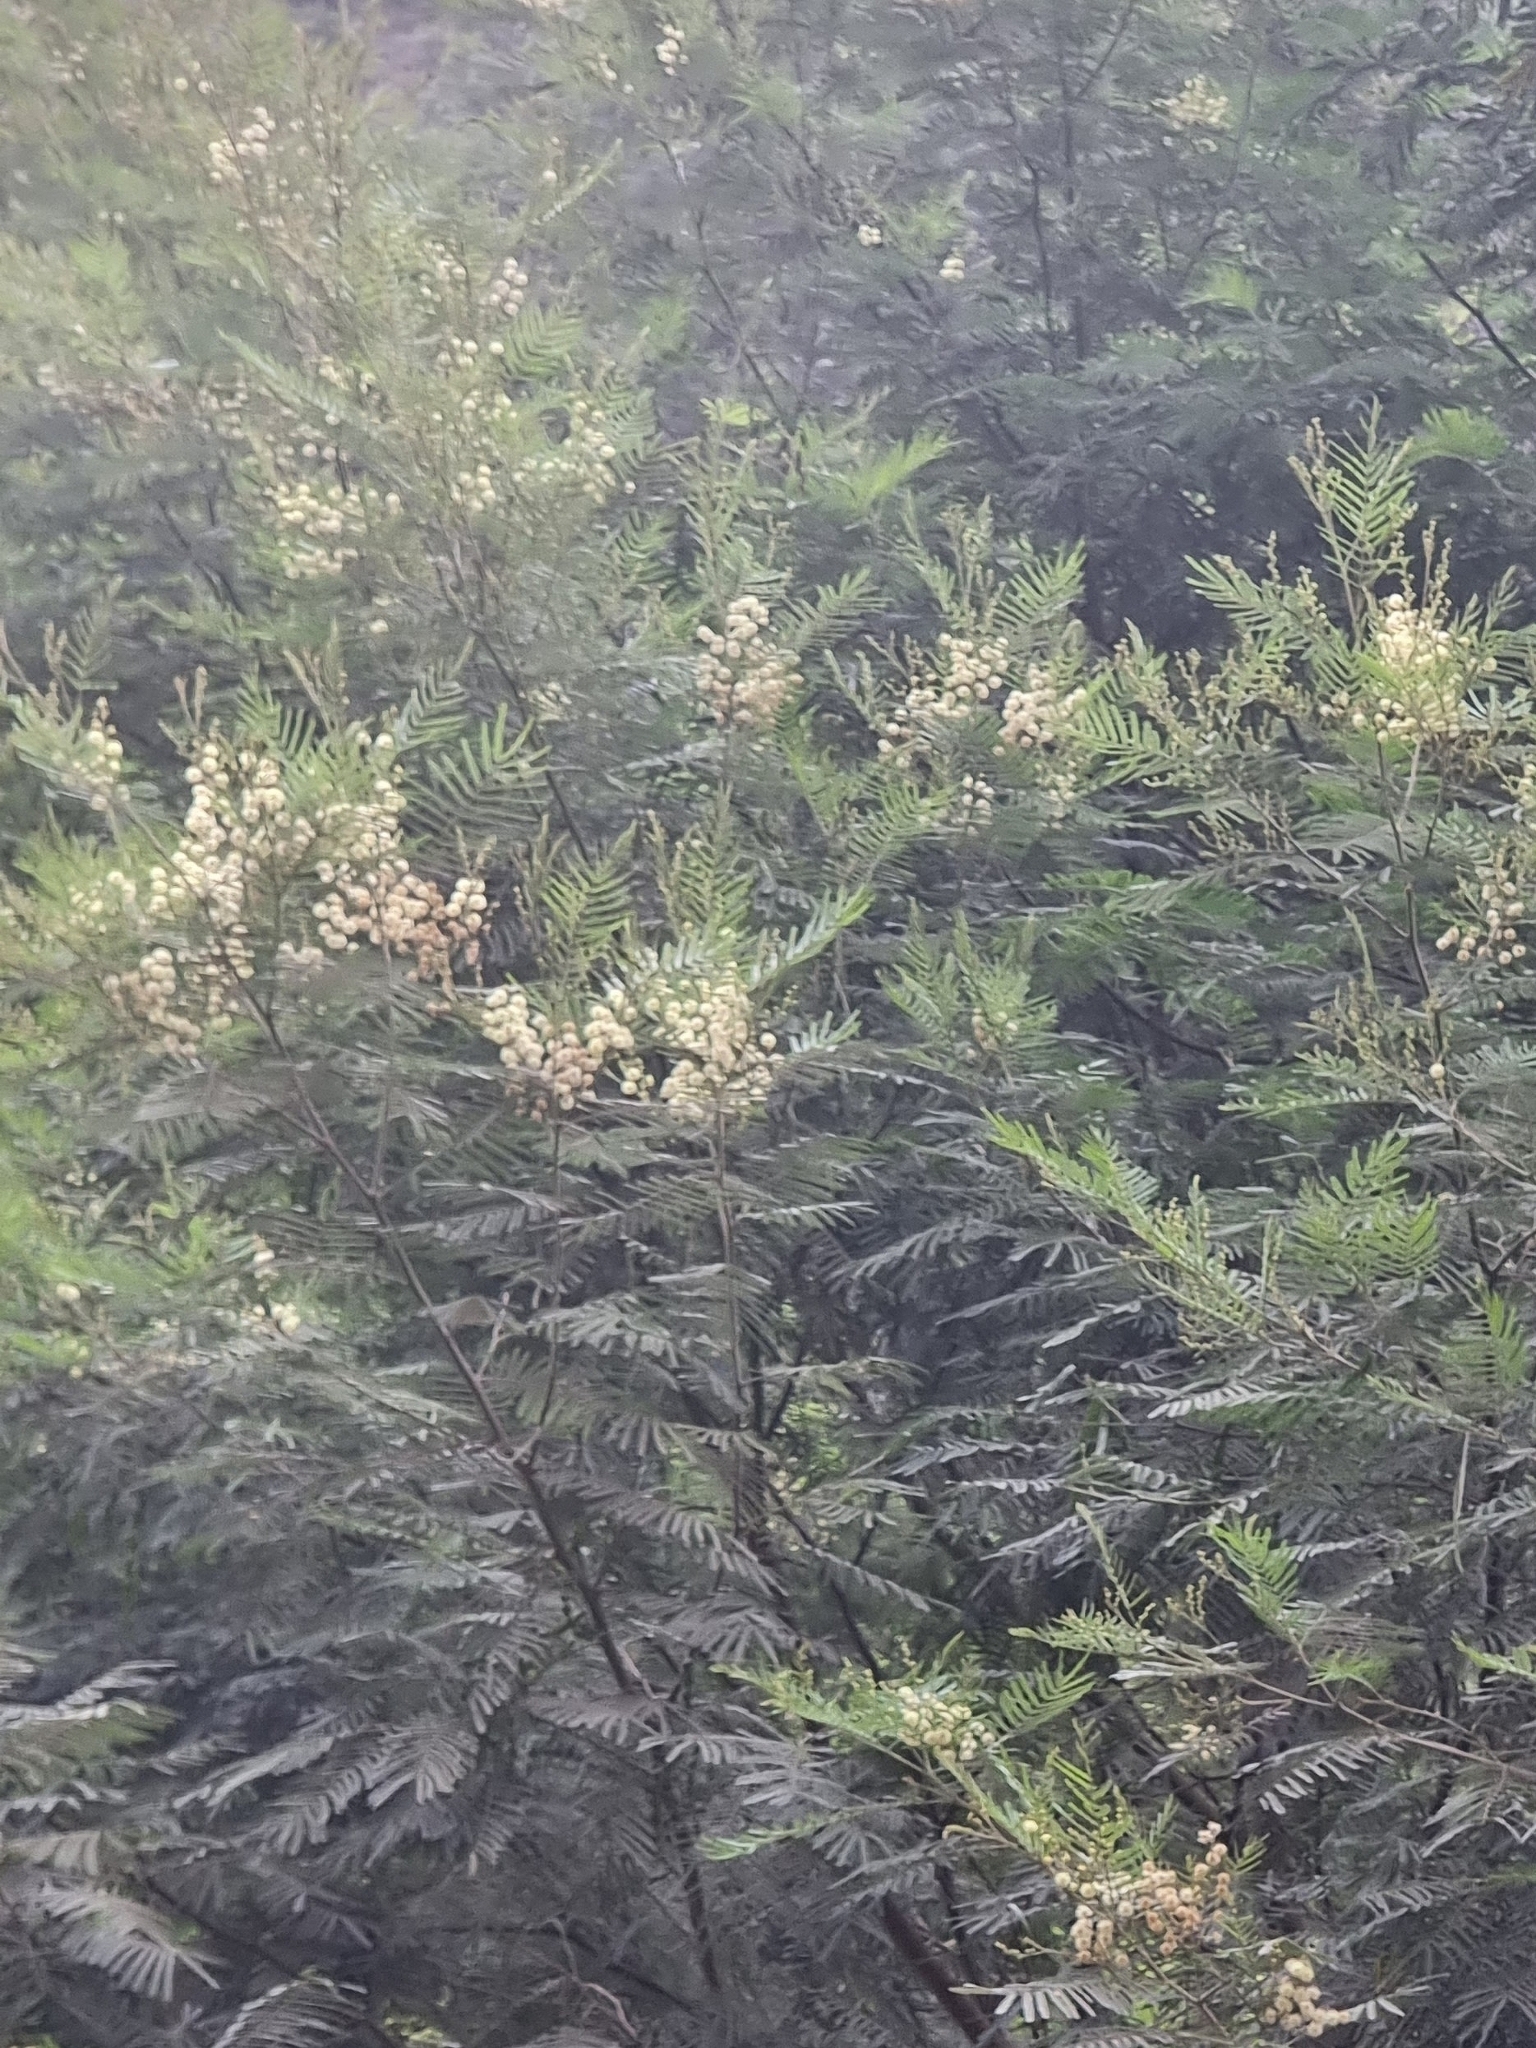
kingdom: Plantae
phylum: Tracheophyta
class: Magnoliopsida
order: Fabales
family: Fabaceae
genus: Acacia
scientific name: Acacia mearnsii
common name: Black wattle
